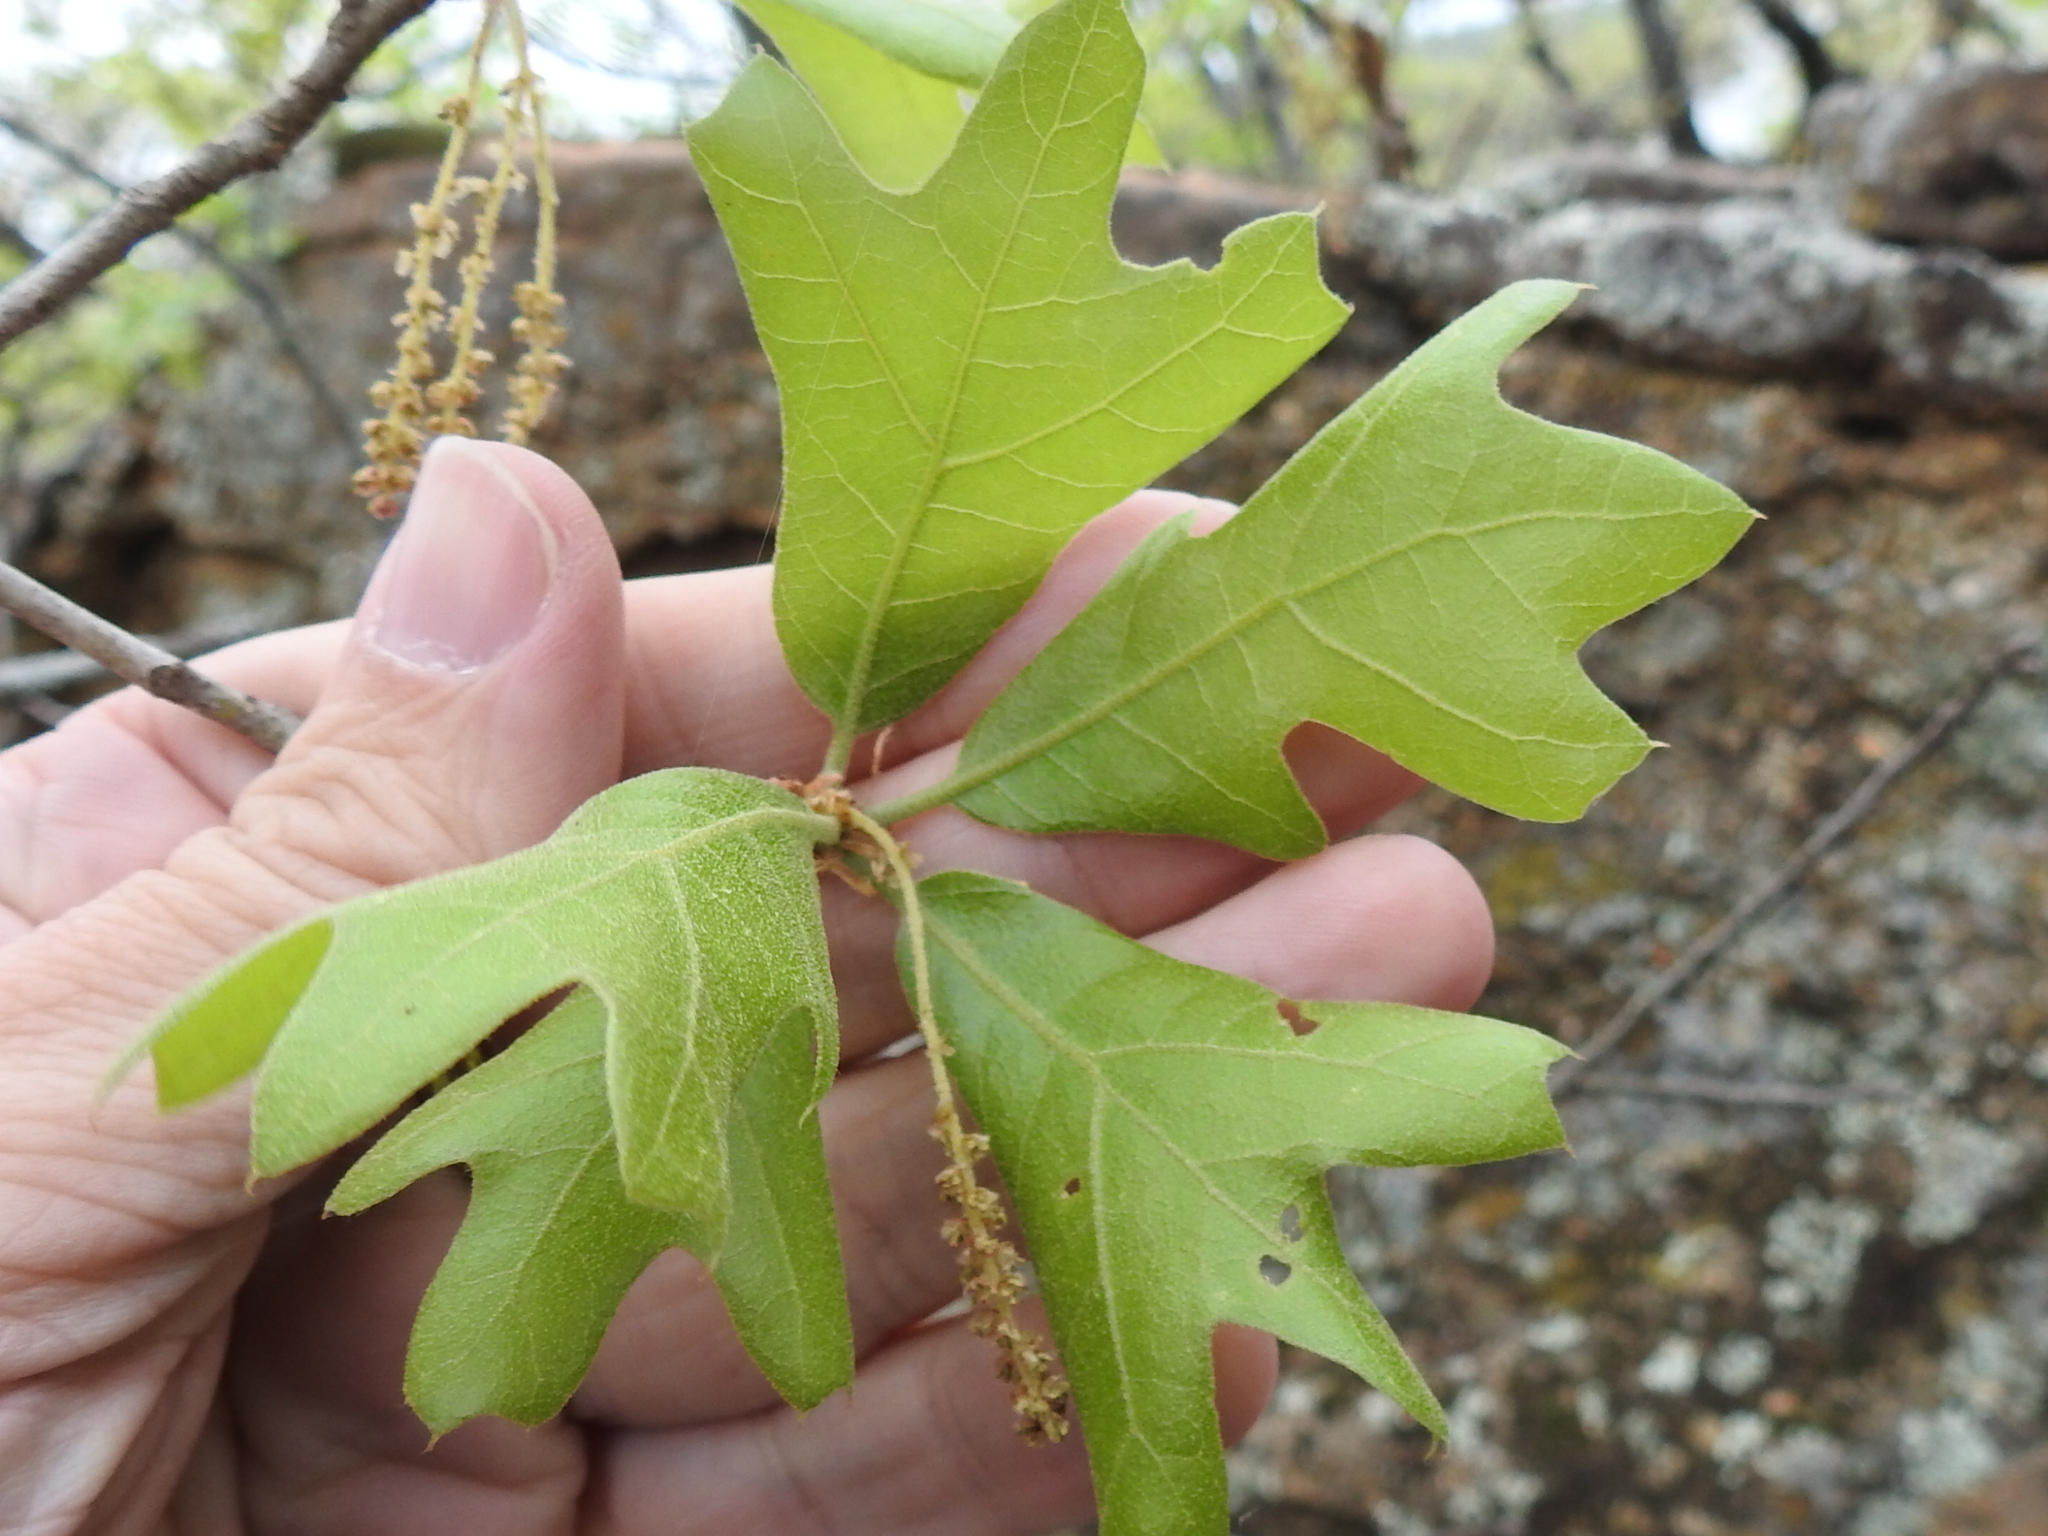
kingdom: Plantae
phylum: Tracheophyta
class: Magnoliopsida
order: Fagales
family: Fagaceae
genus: Quercus
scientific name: Quercus marilandica
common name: Blackjack oak
